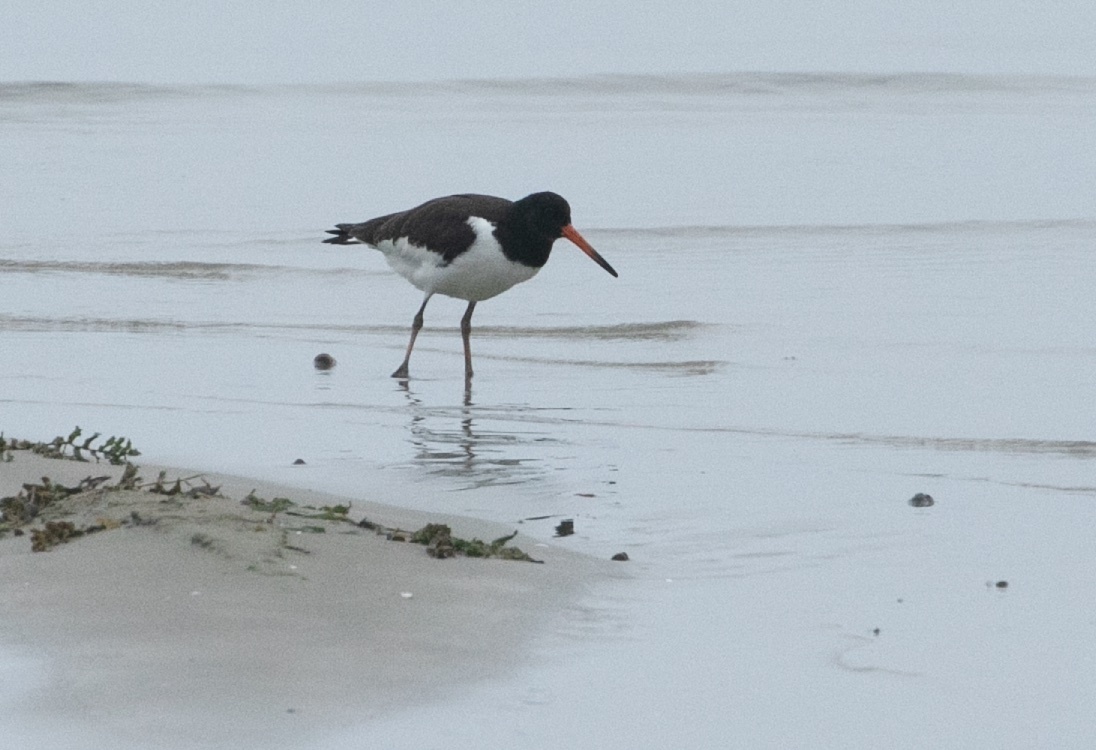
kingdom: Animalia
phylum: Chordata
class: Aves
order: Charadriiformes
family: Haematopodidae
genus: Haematopus
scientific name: Haematopus ostralegus
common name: Eurasian oystercatcher
